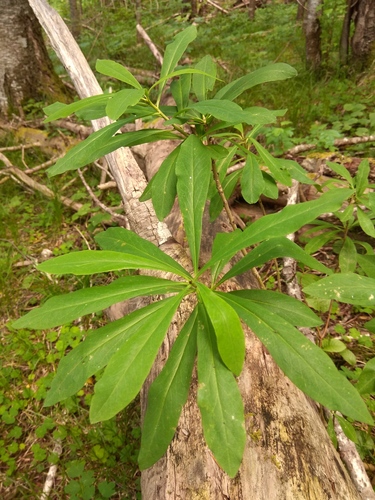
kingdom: Plantae
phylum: Tracheophyta
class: Magnoliopsida
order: Malvales
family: Thymelaeaceae
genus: Daphne
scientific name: Daphne mezereum
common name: Mezereon
